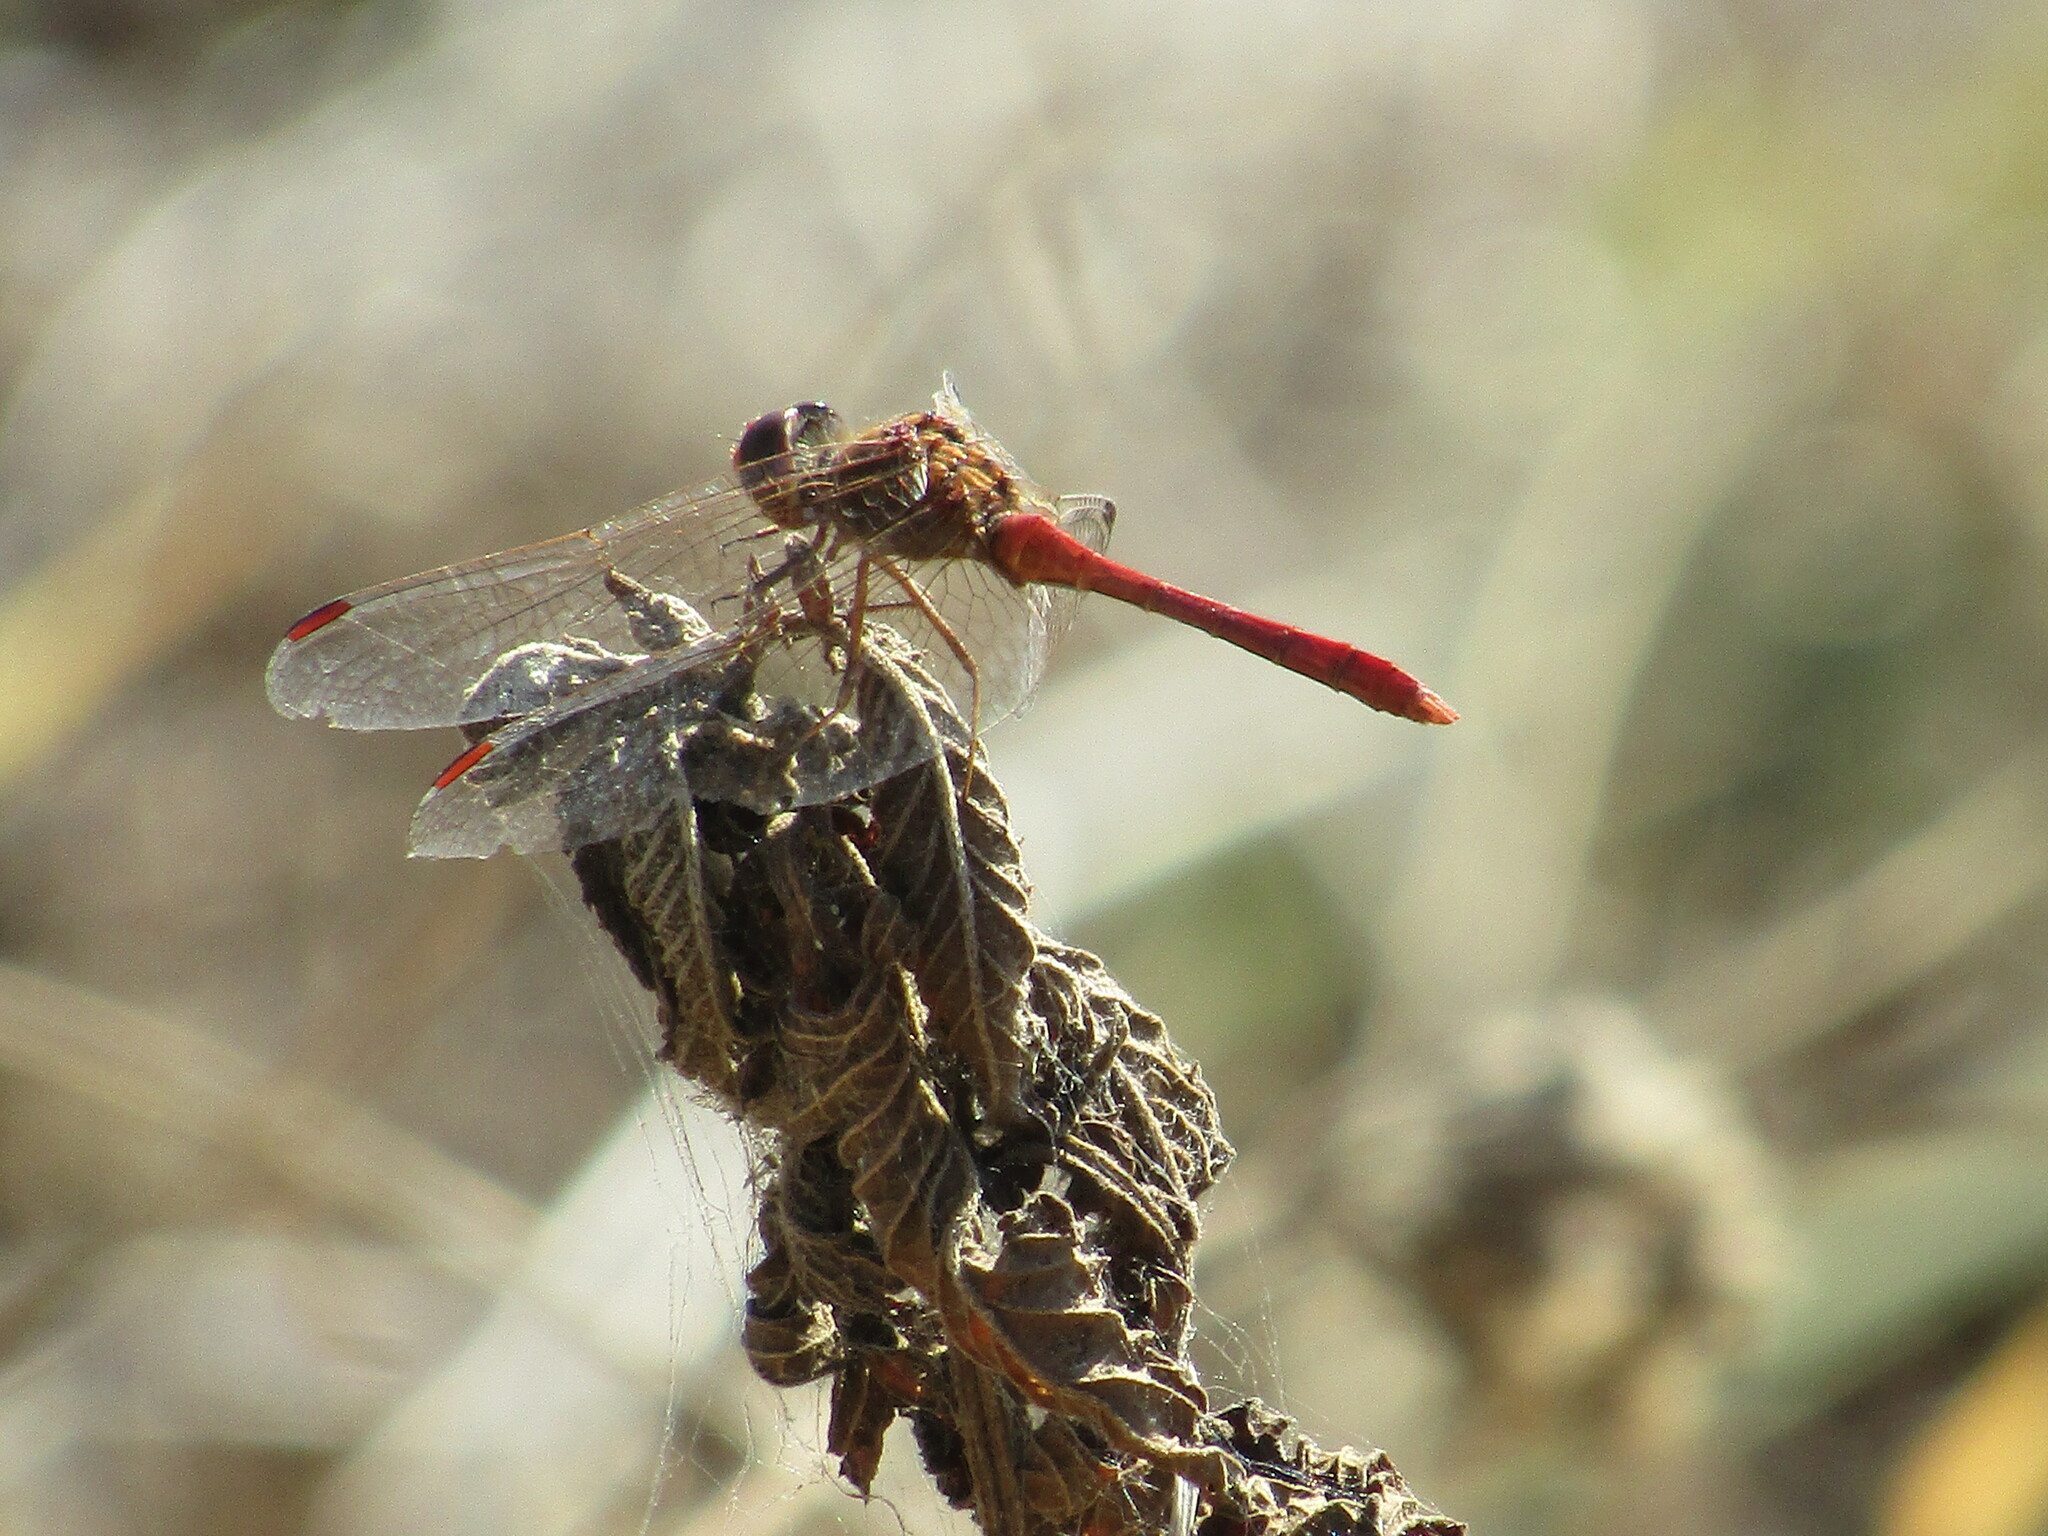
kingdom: Animalia
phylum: Arthropoda
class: Insecta
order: Odonata
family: Libellulidae
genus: Sympetrum
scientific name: Sympetrum meridionale
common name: Southern darter
